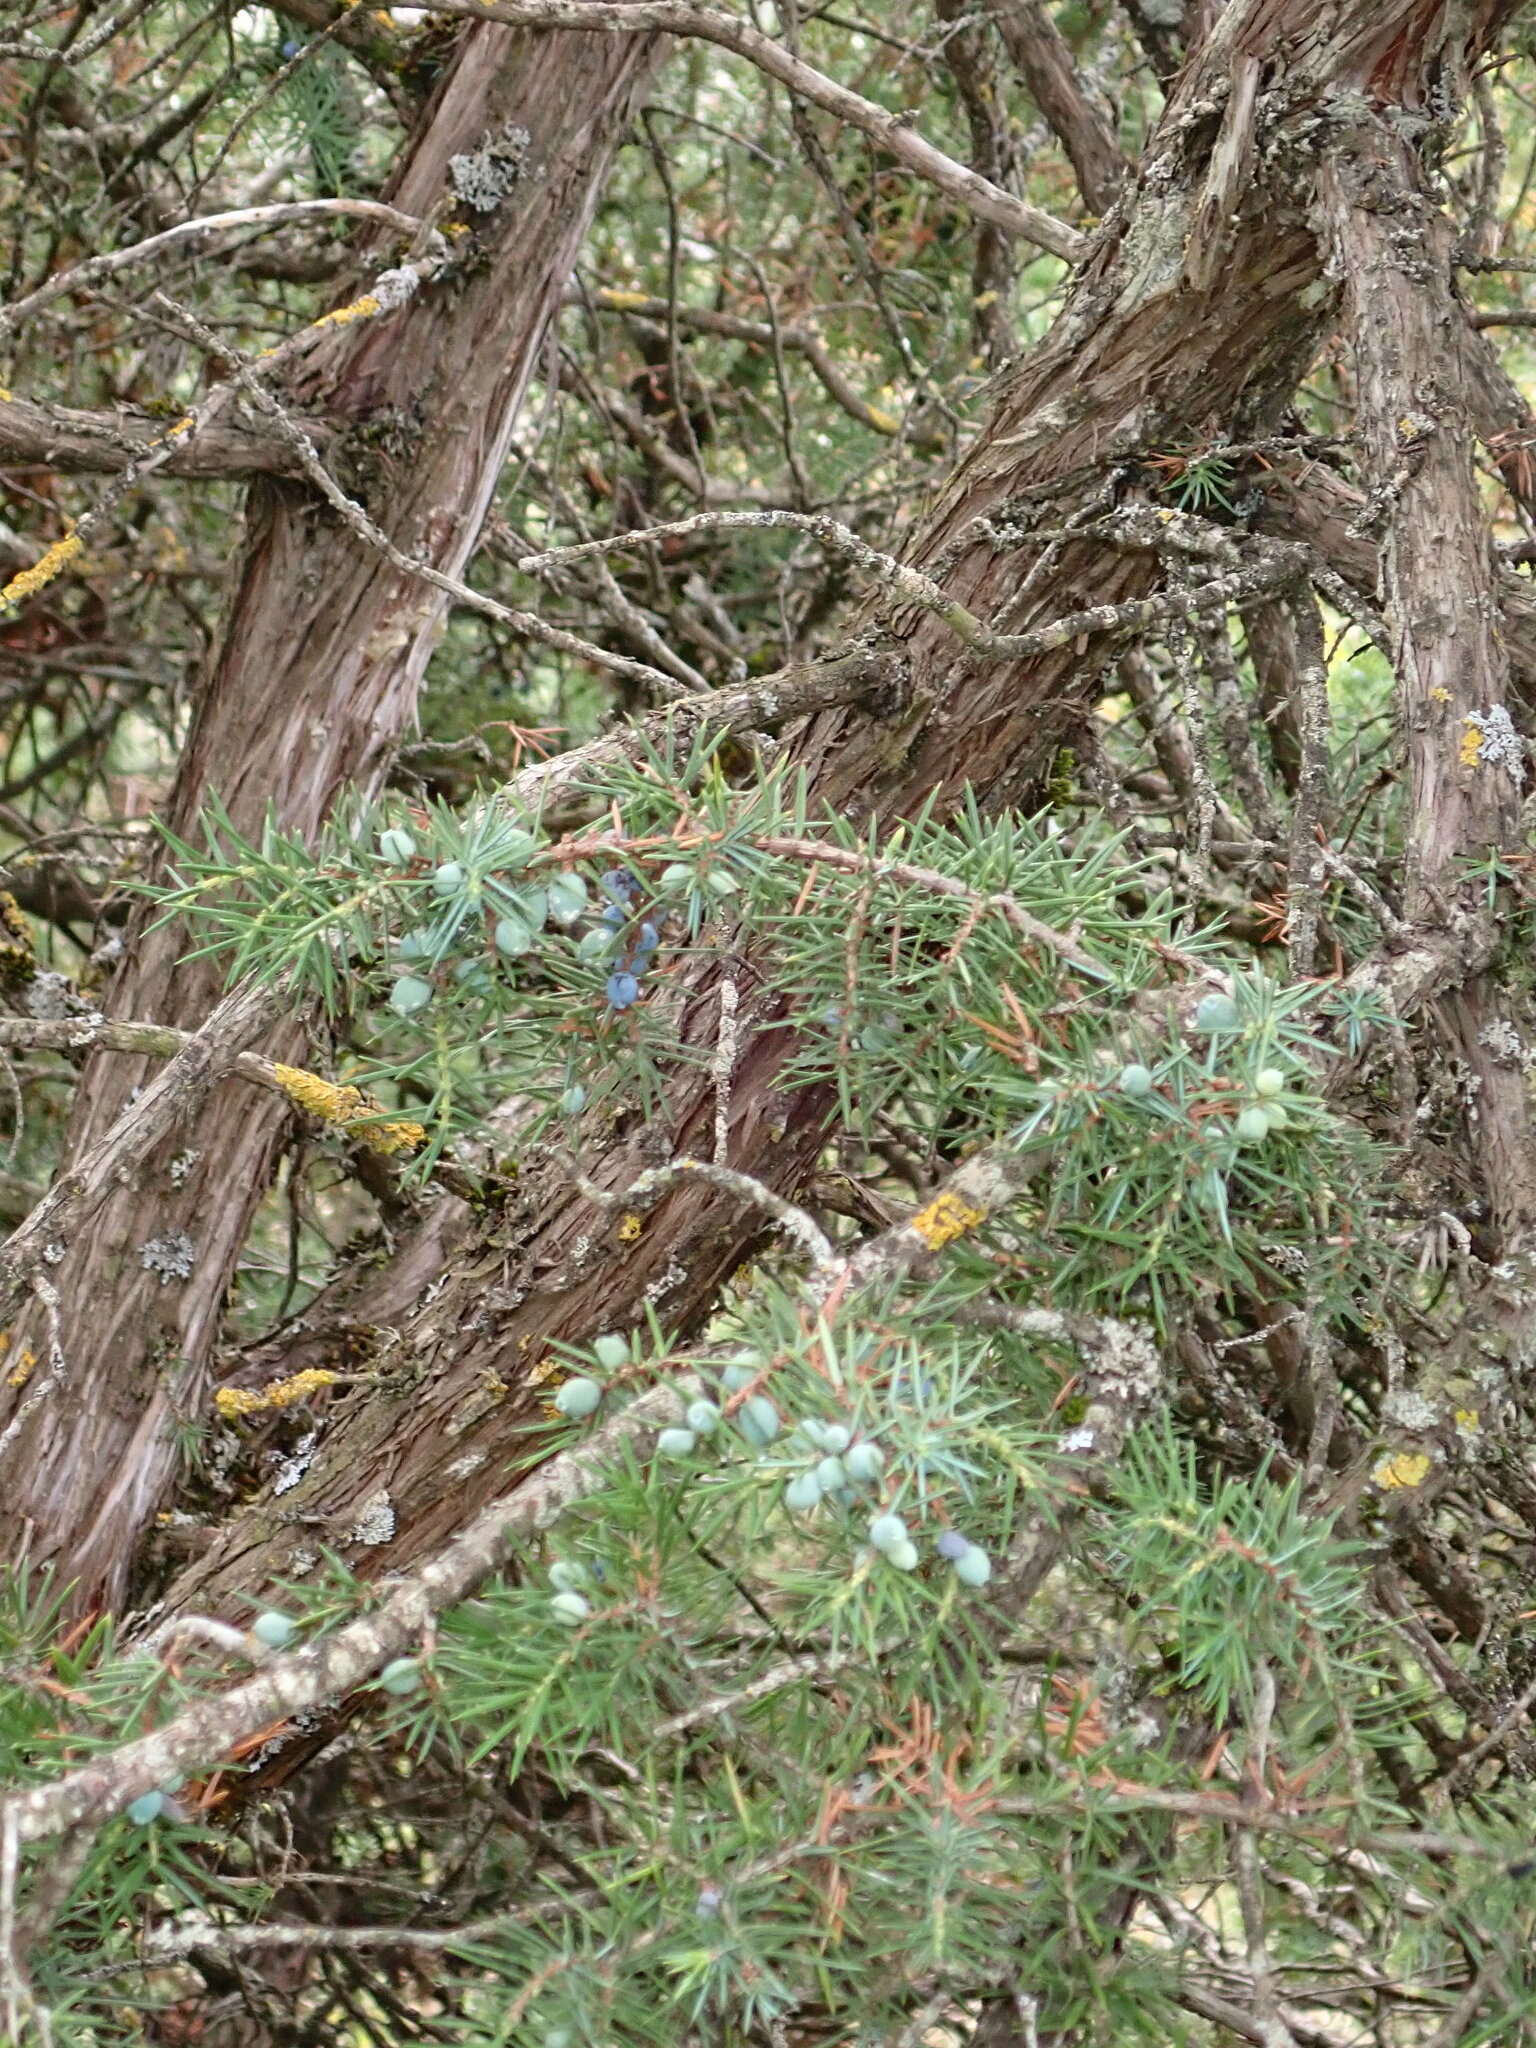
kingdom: Plantae
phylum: Tracheophyta
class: Pinopsida
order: Pinales
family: Cupressaceae
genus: Juniperus
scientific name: Juniperus communis
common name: Common juniper
